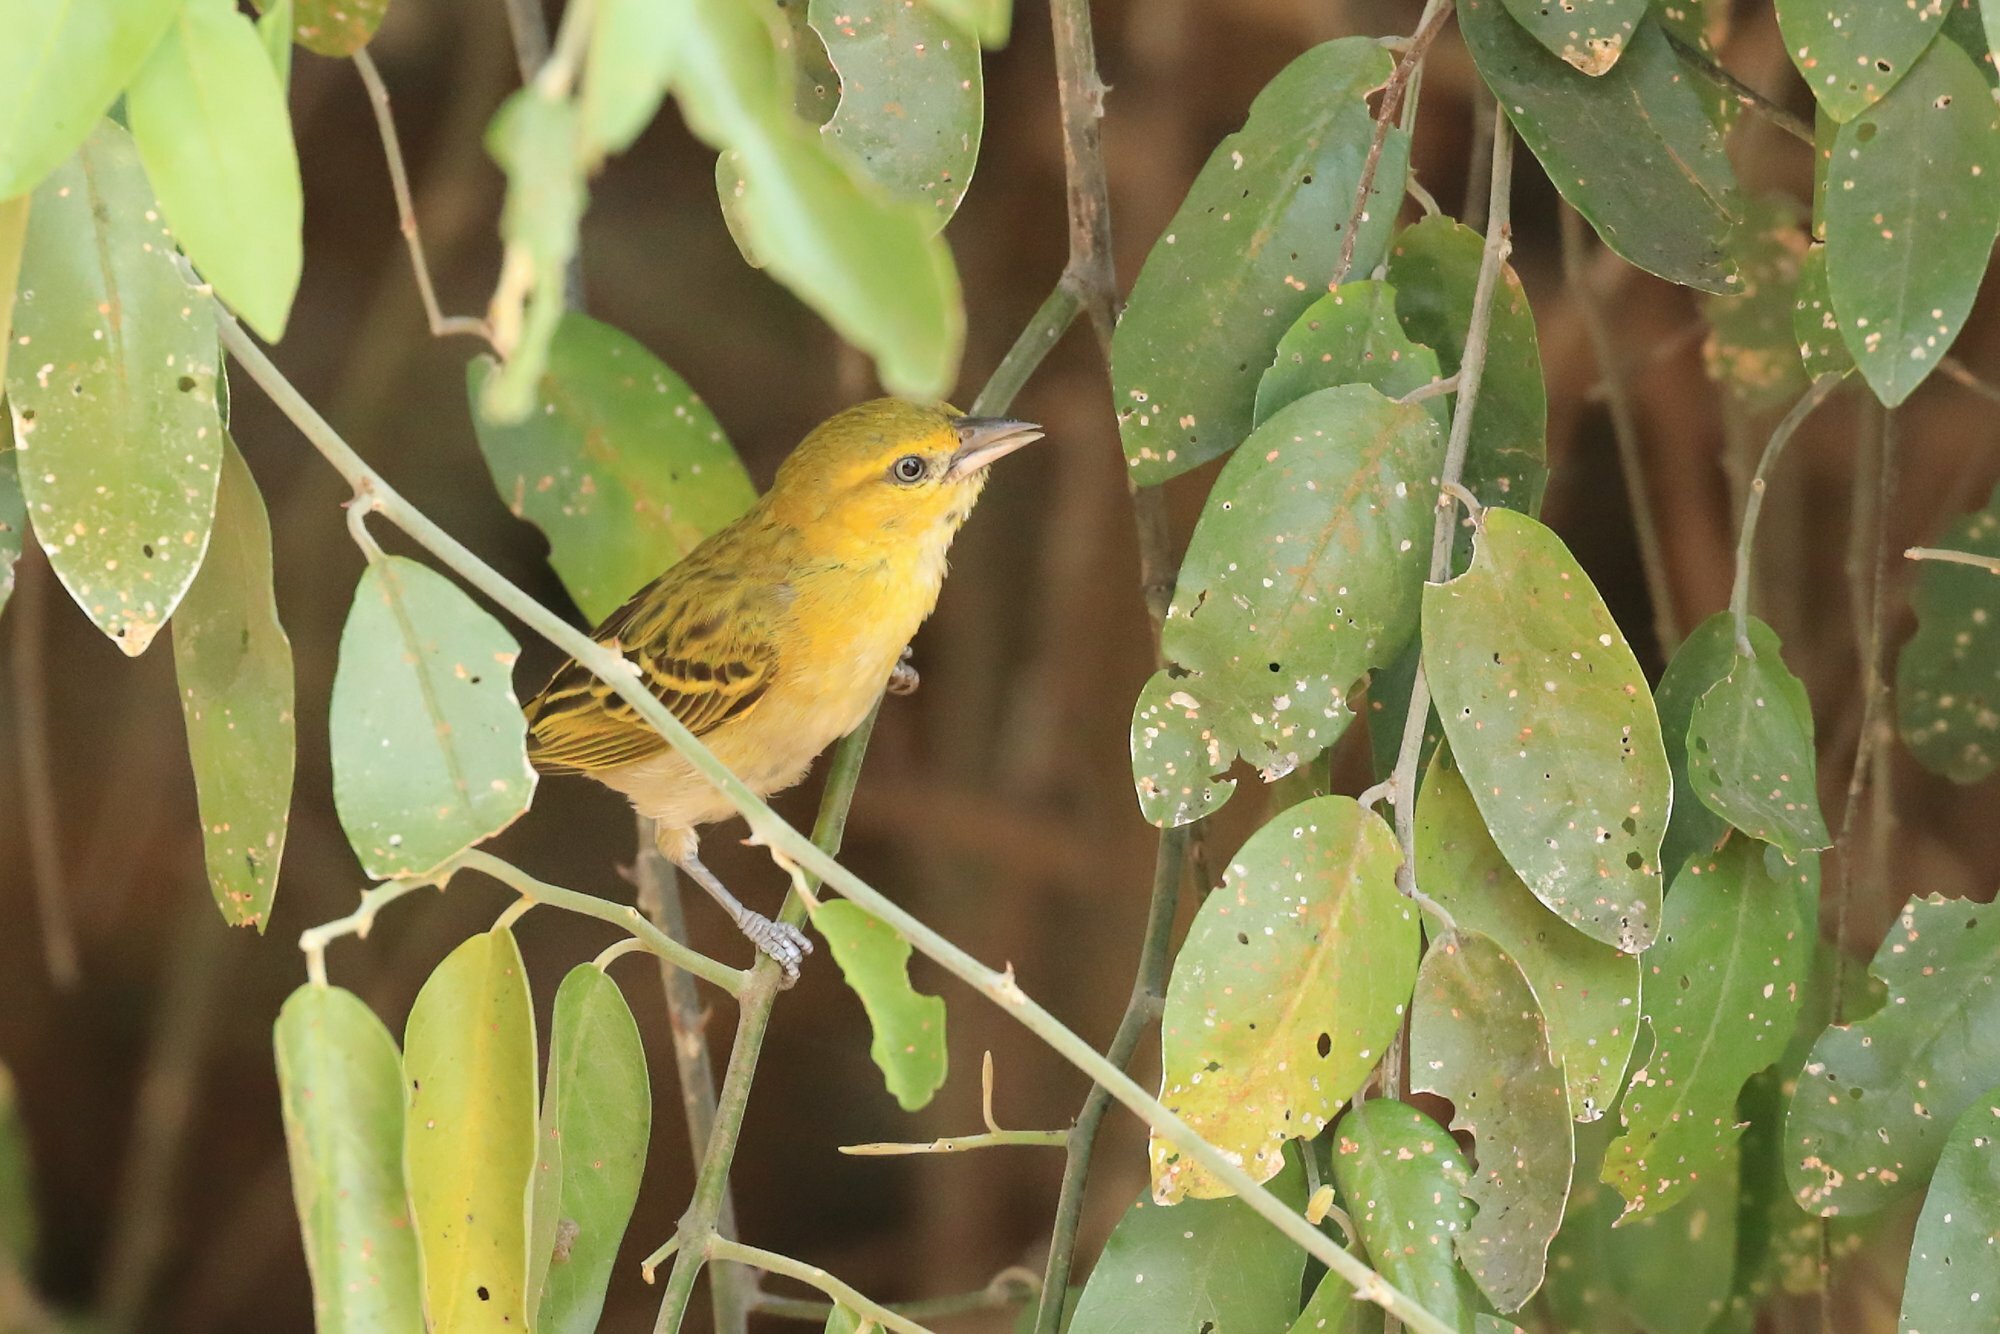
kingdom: Animalia
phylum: Chordata
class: Aves
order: Passeriformes
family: Ploceidae
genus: Ploceus
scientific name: Ploceus intermedius
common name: Lesser masked weaver
